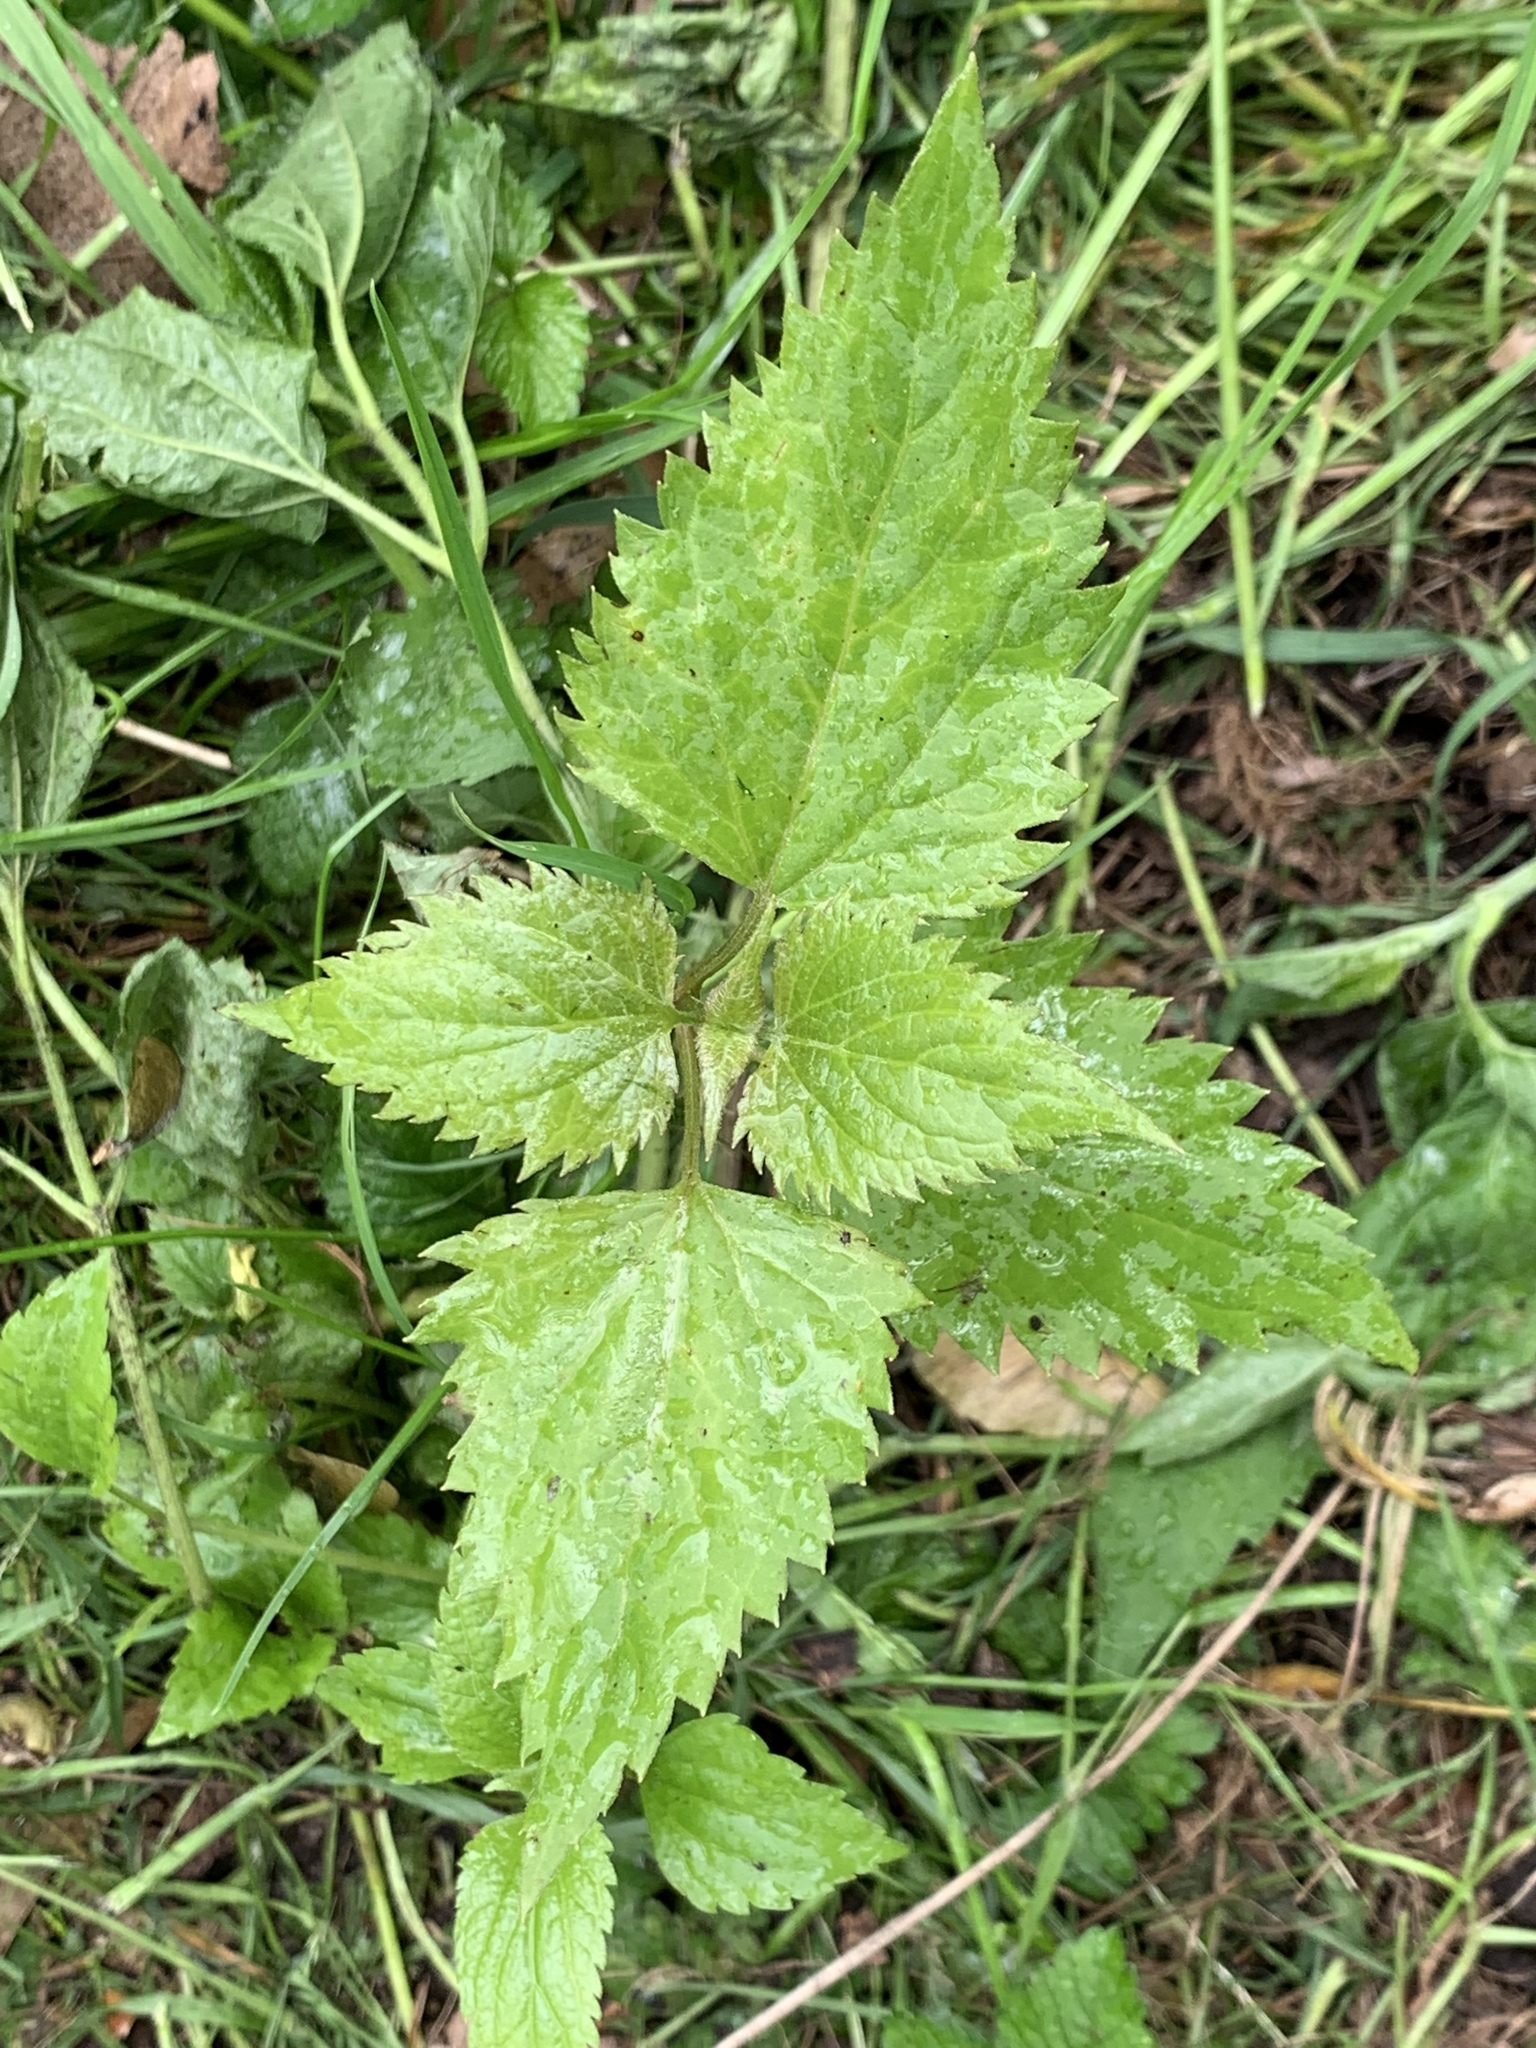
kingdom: Plantae
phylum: Tracheophyta
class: Magnoliopsida
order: Asterales
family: Asteraceae
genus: Ageratina
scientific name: Ageratina altissima
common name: White snakeroot
